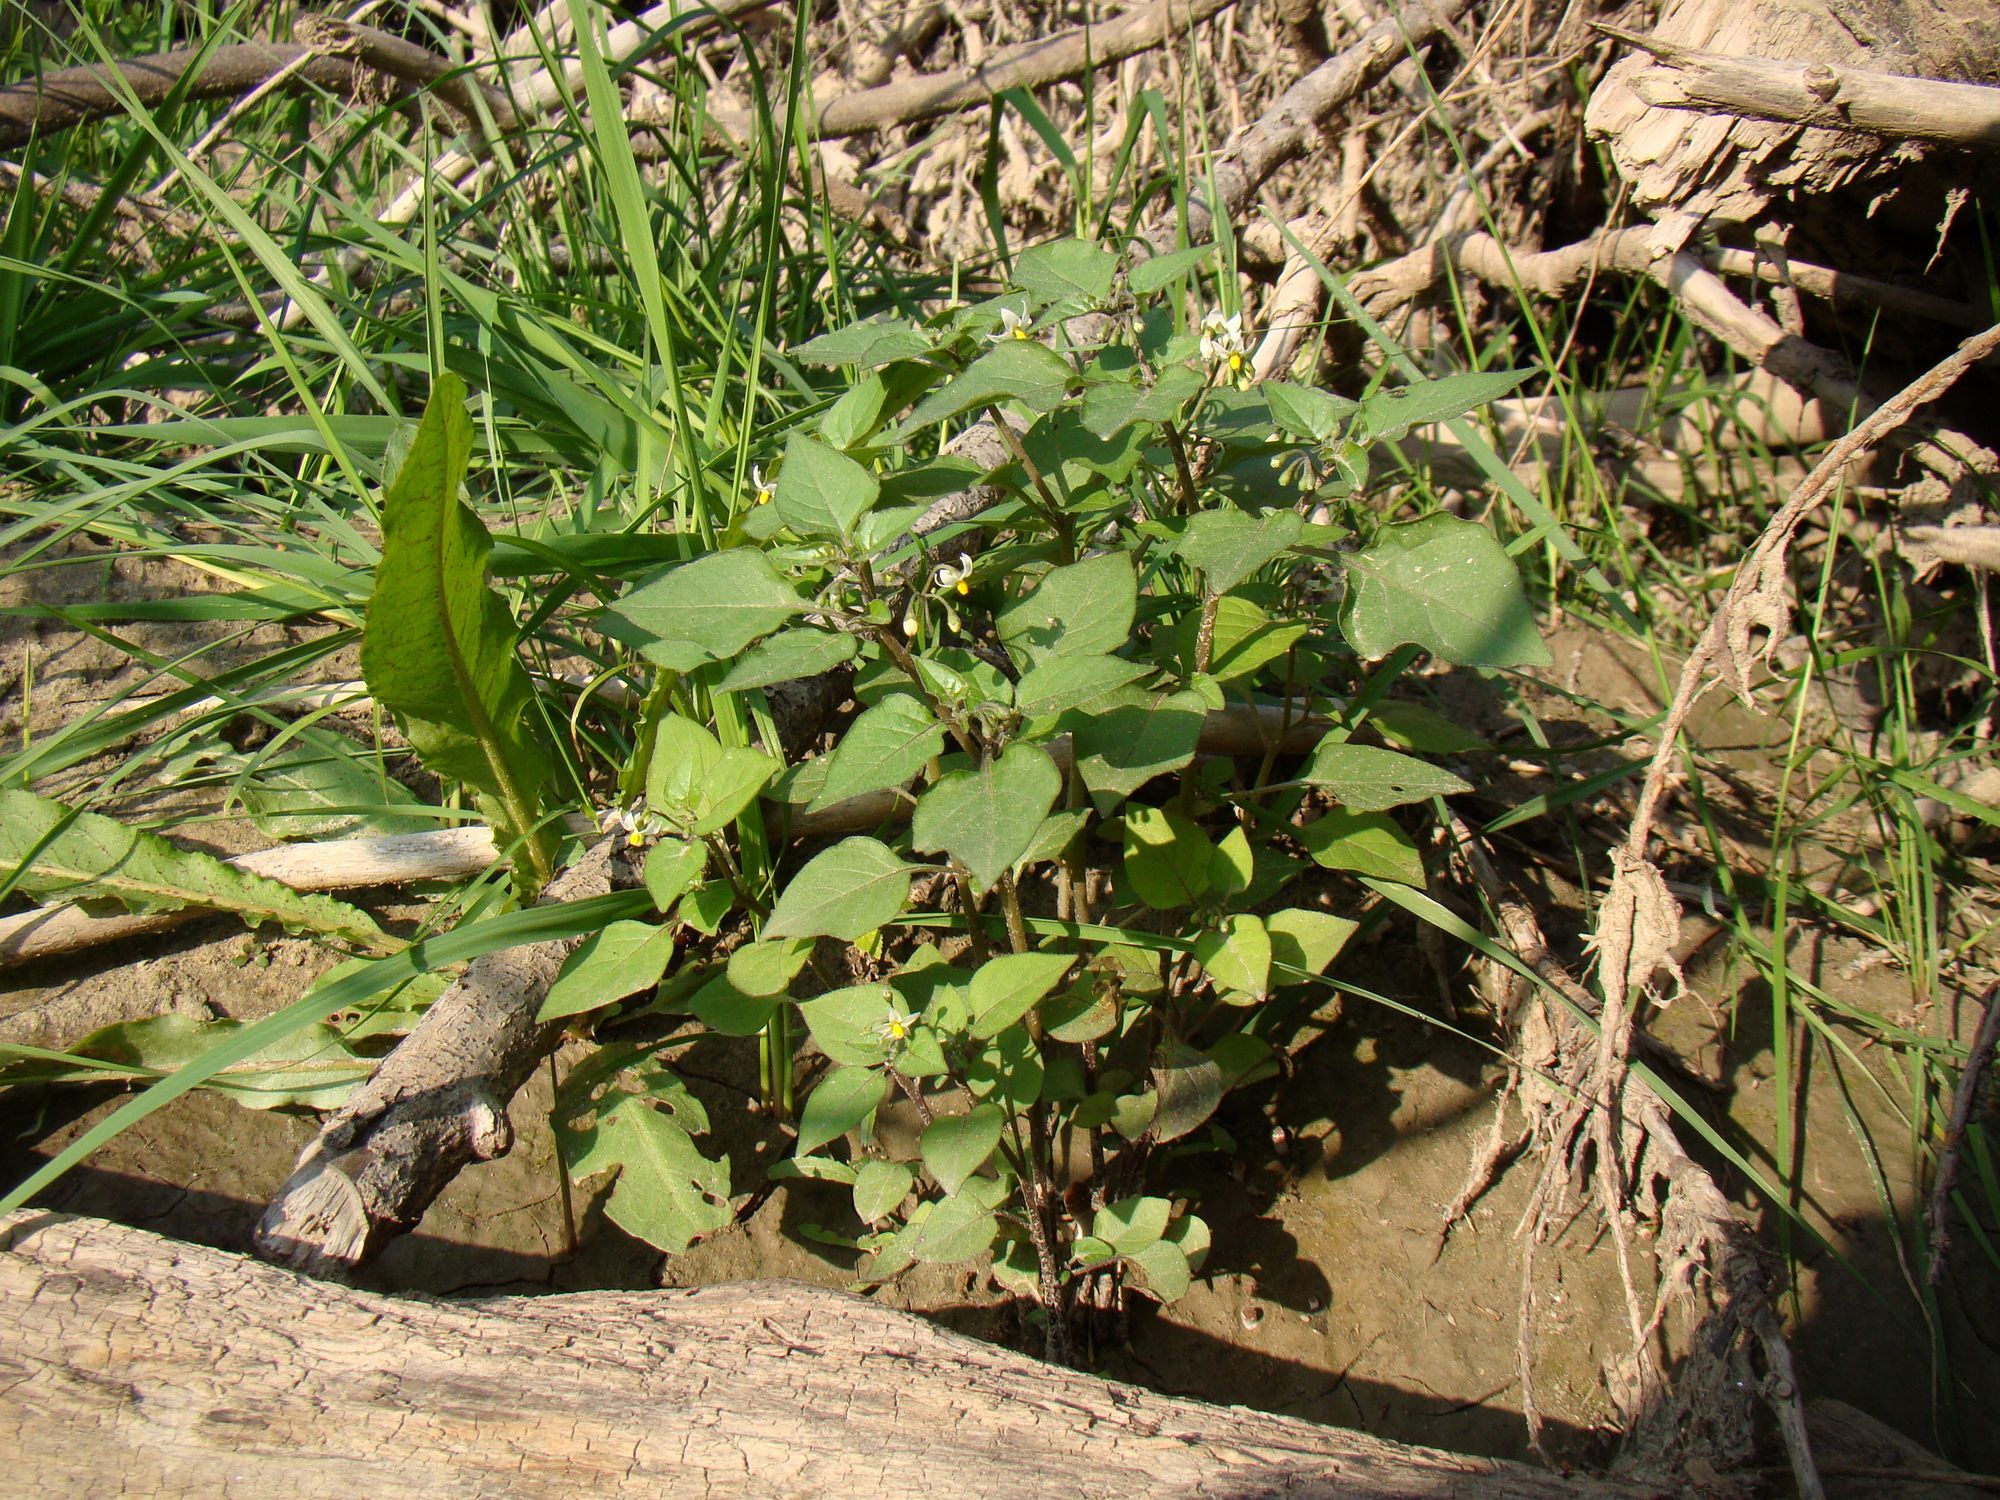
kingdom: Plantae
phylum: Tracheophyta
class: Magnoliopsida
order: Solanales
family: Solanaceae
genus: Solanum
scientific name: Solanum nigrum
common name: Black nightshade
